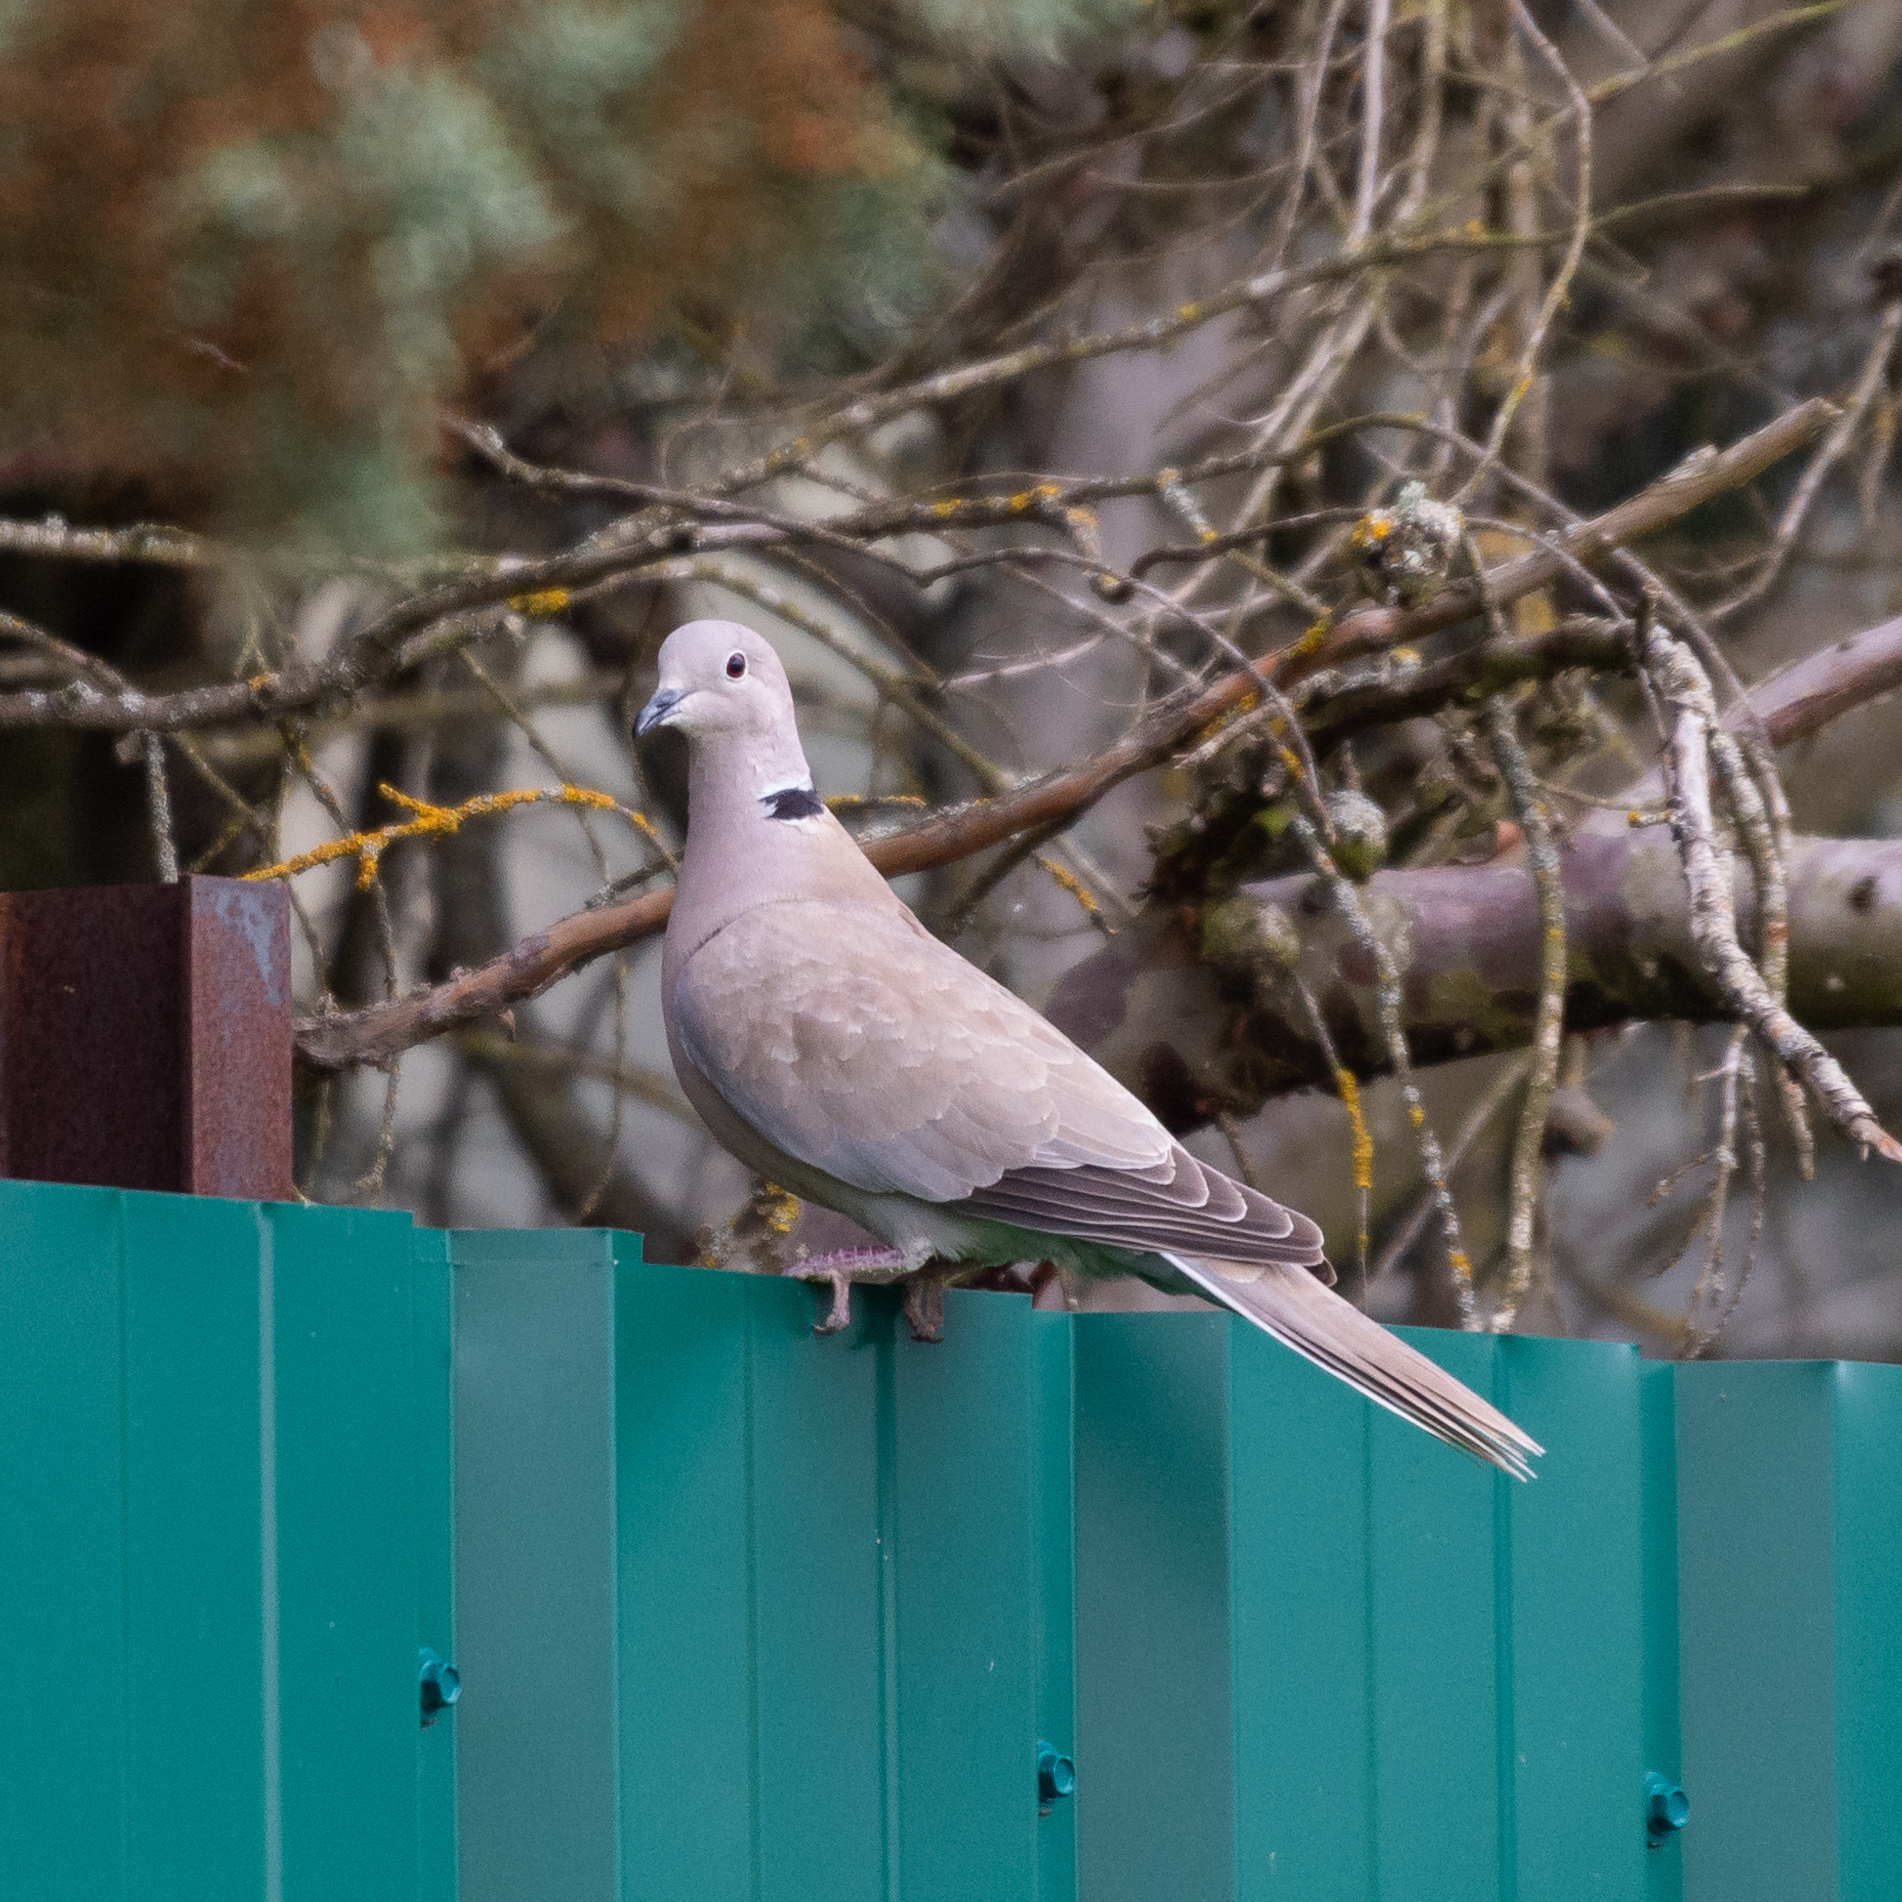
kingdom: Animalia
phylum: Chordata
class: Aves
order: Columbiformes
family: Columbidae
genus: Streptopelia
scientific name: Streptopelia decaocto
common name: Eurasian collared dove
